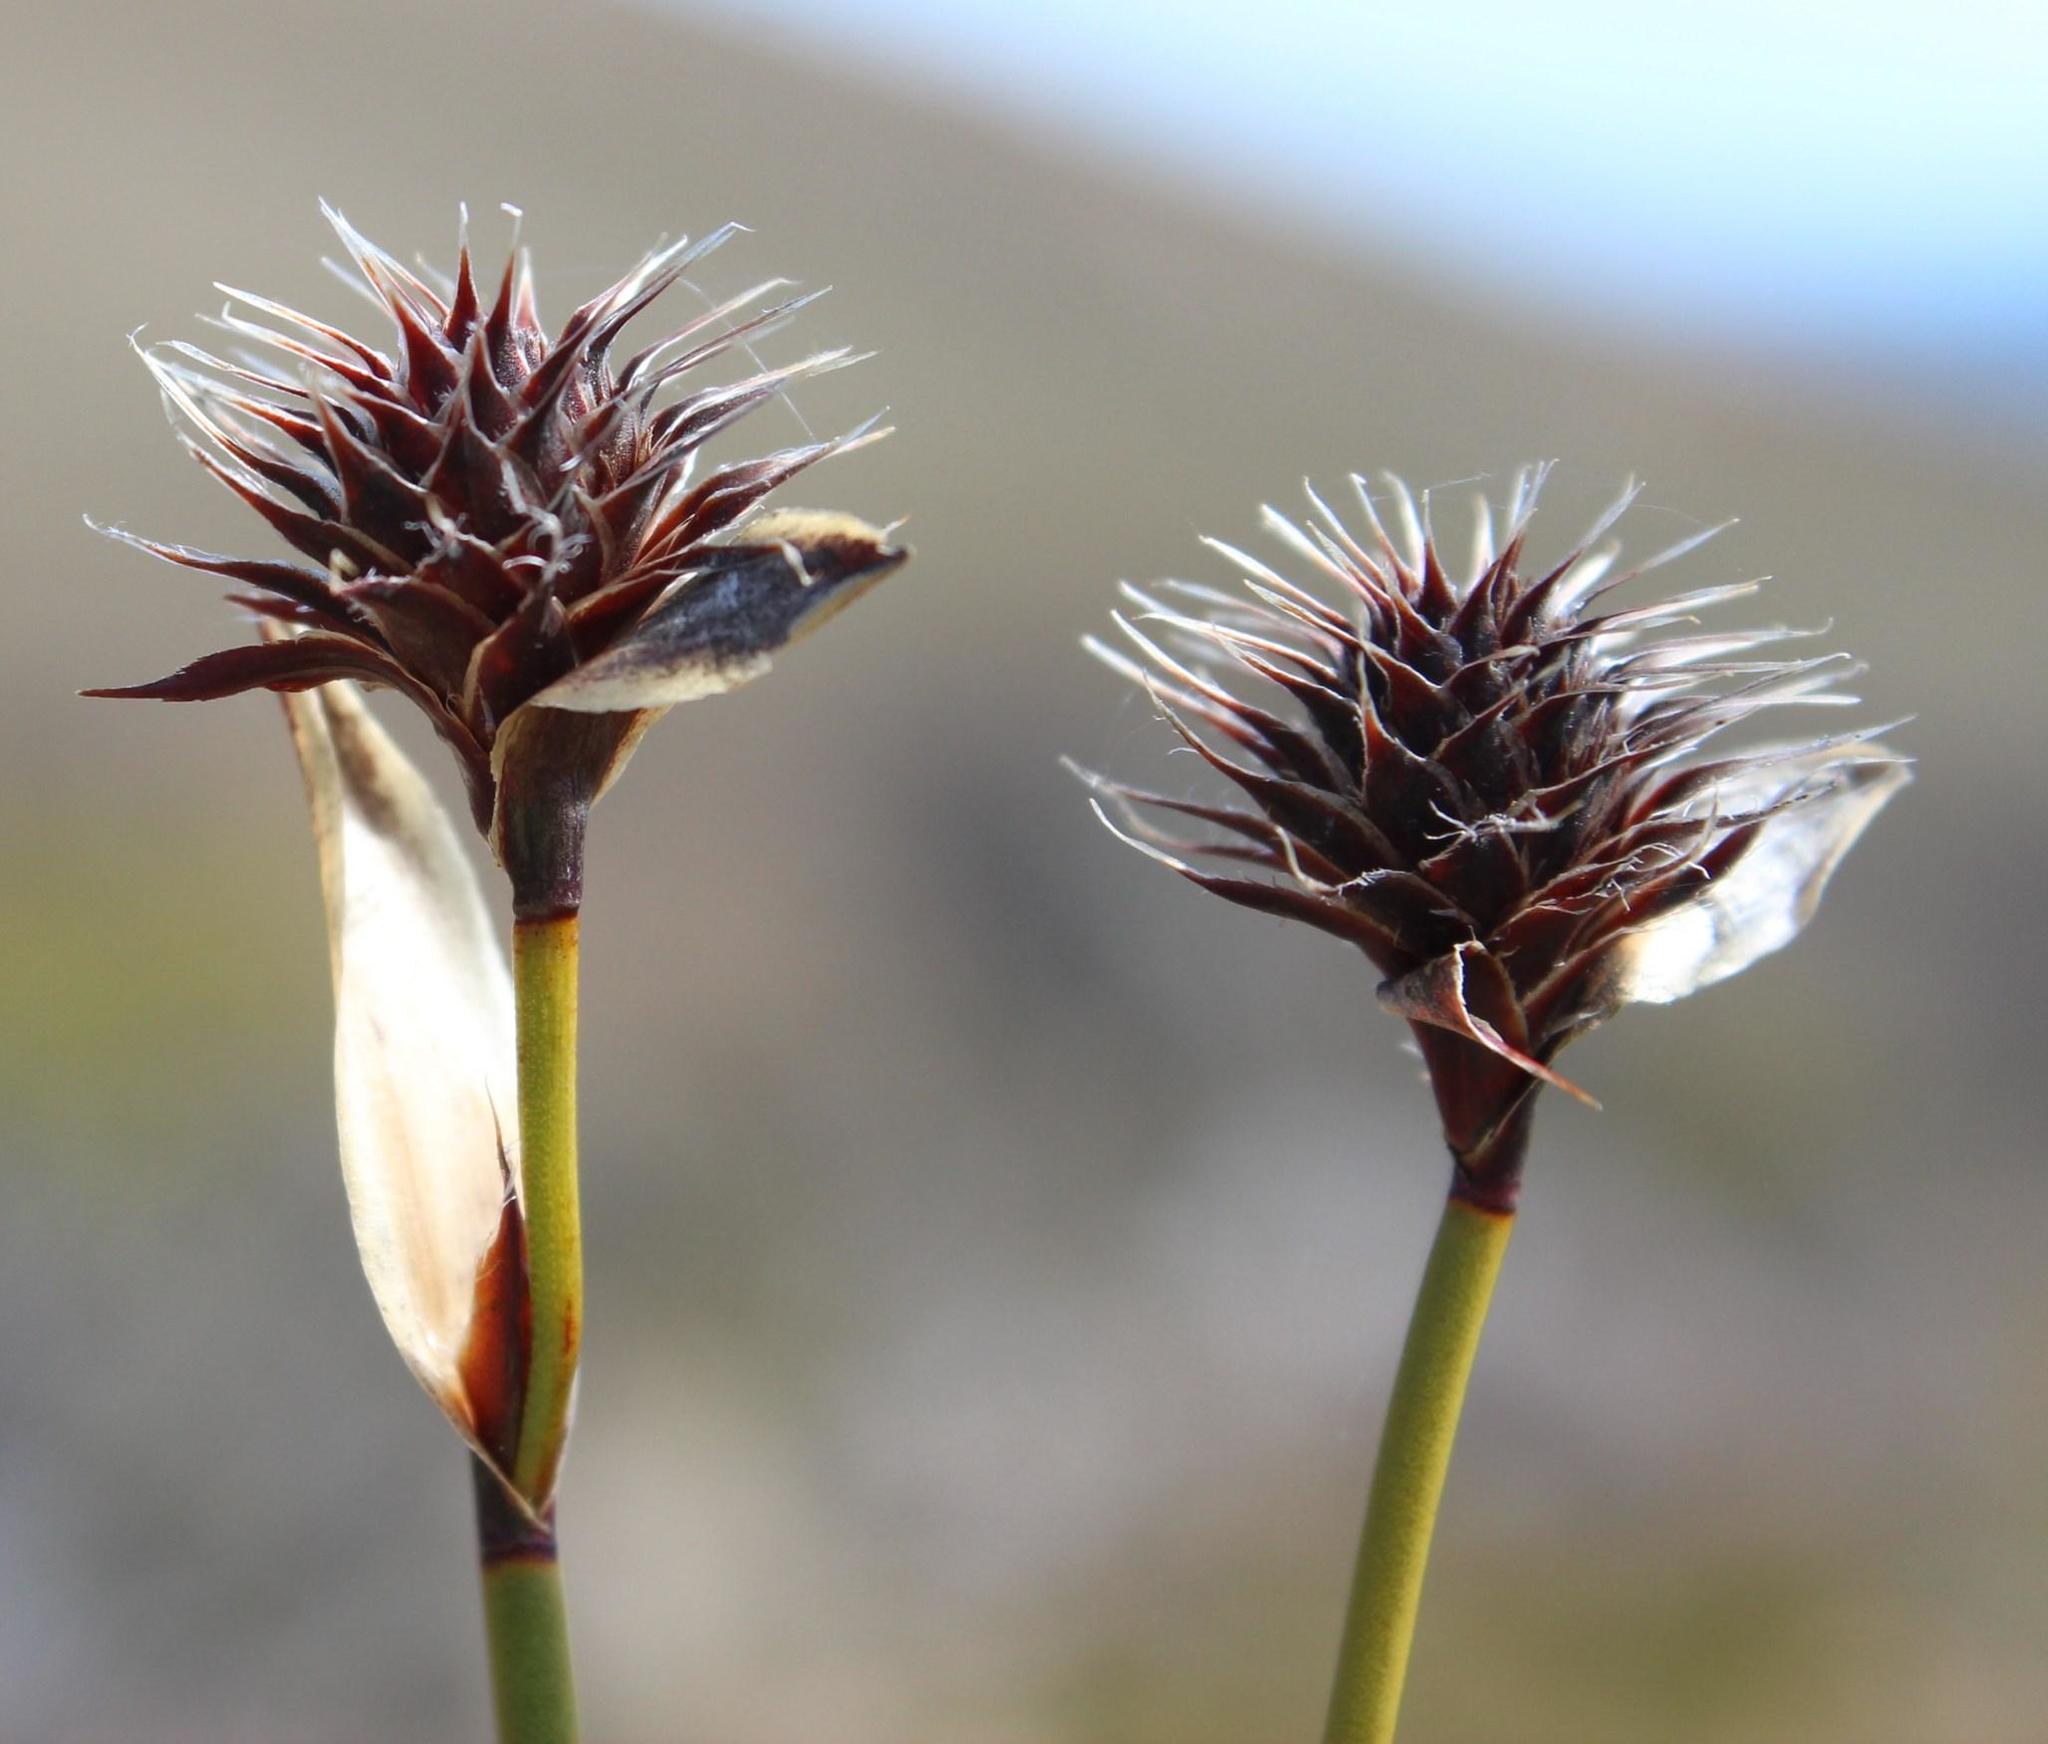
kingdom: Plantae
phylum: Tracheophyta
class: Liliopsida
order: Poales
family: Restionaceae
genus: Hypodiscus
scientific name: Hypodiscus aristatus
